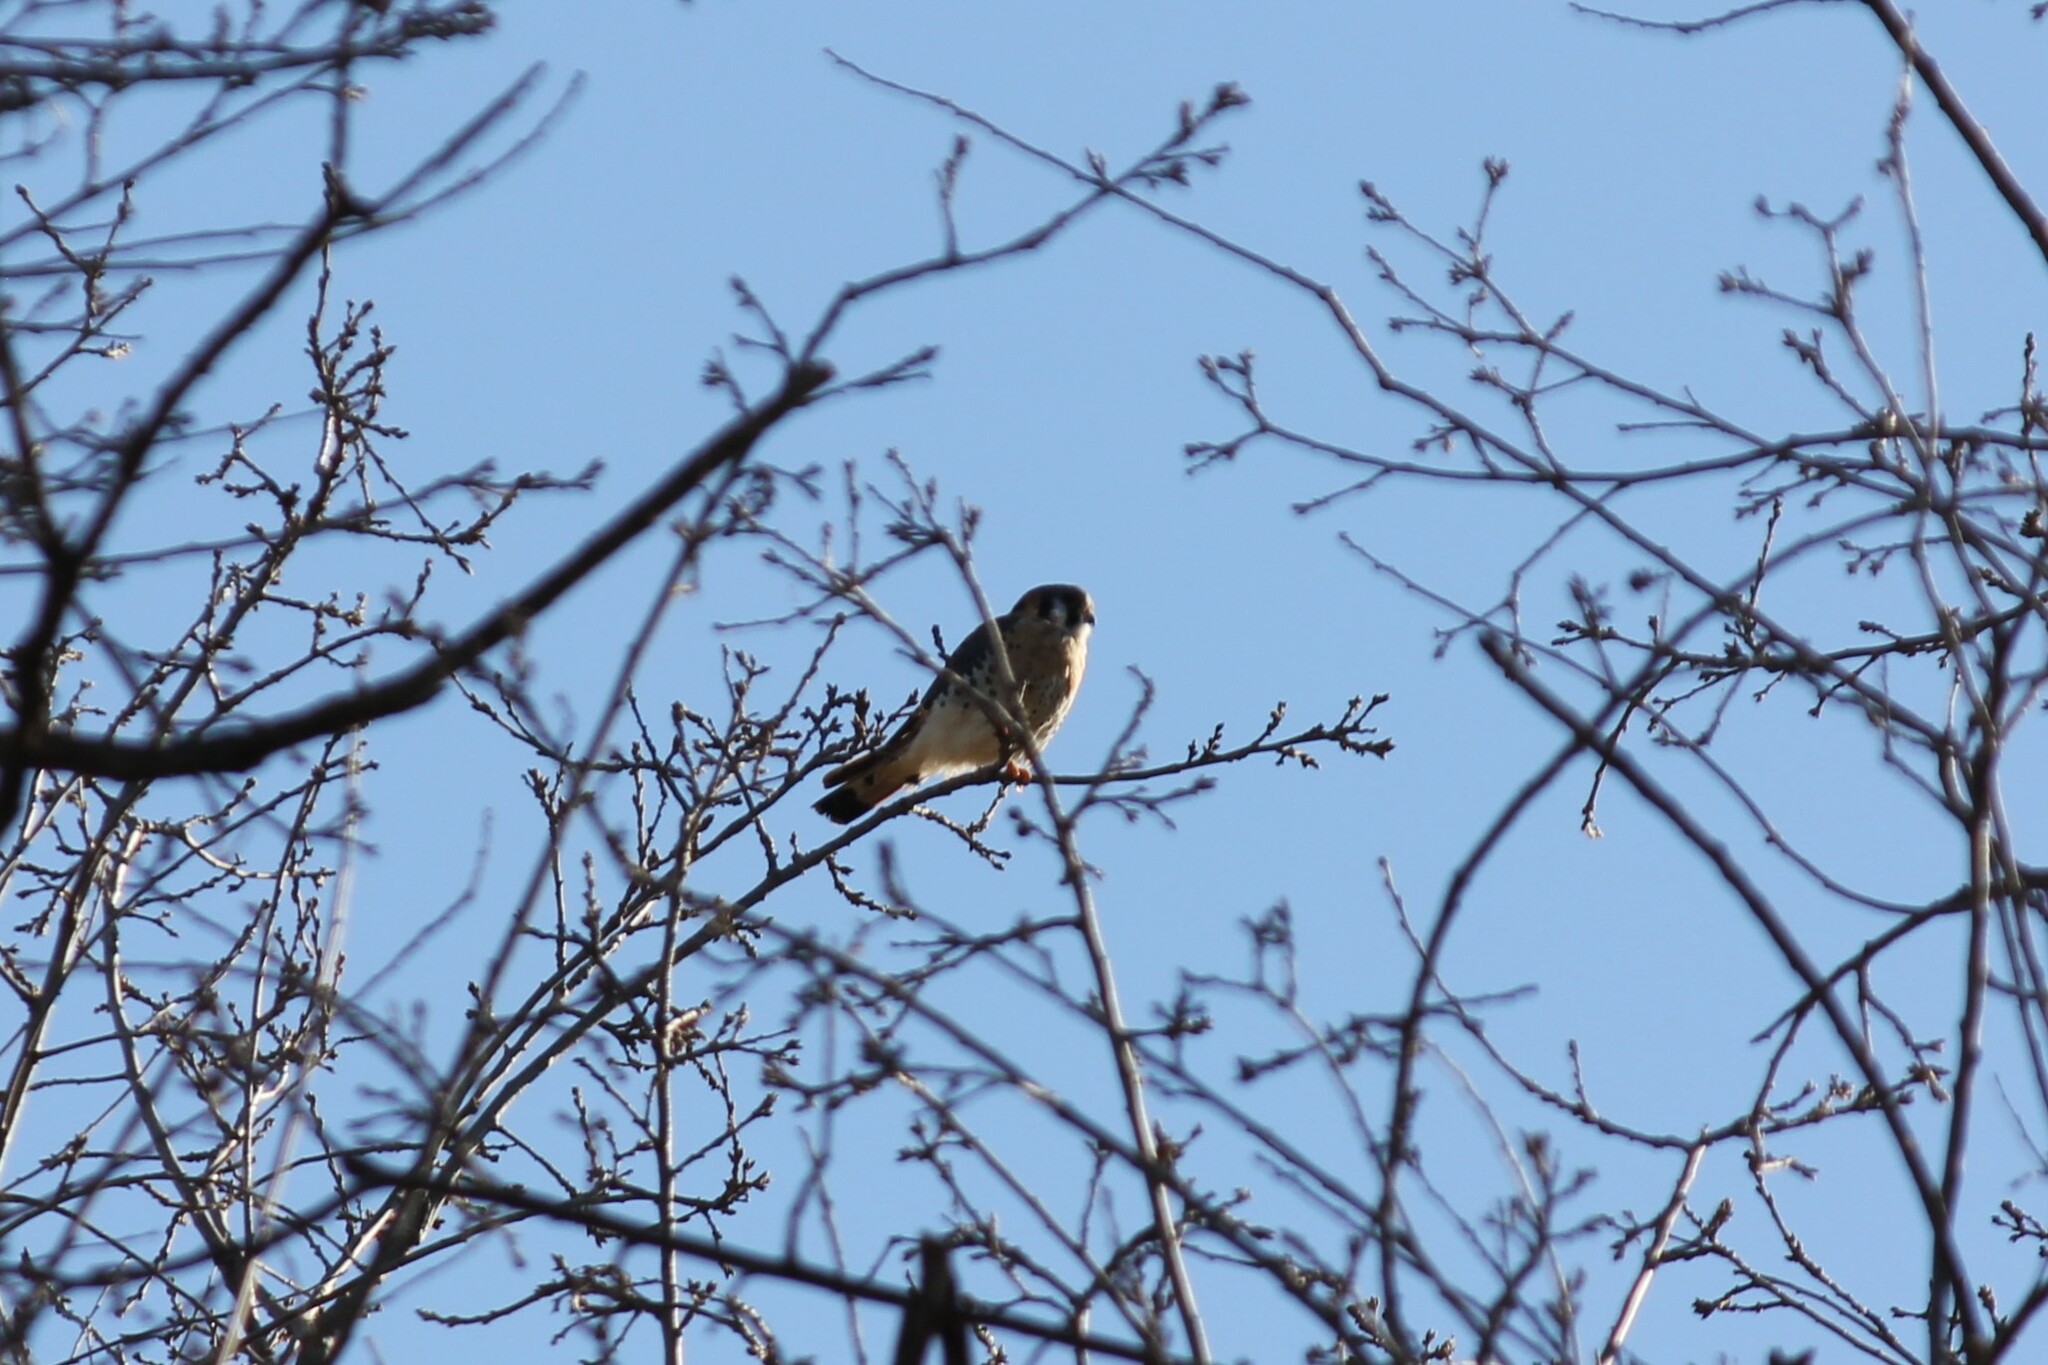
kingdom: Animalia
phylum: Chordata
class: Aves
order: Falconiformes
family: Falconidae
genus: Falco
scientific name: Falco sparverius
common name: American kestrel
